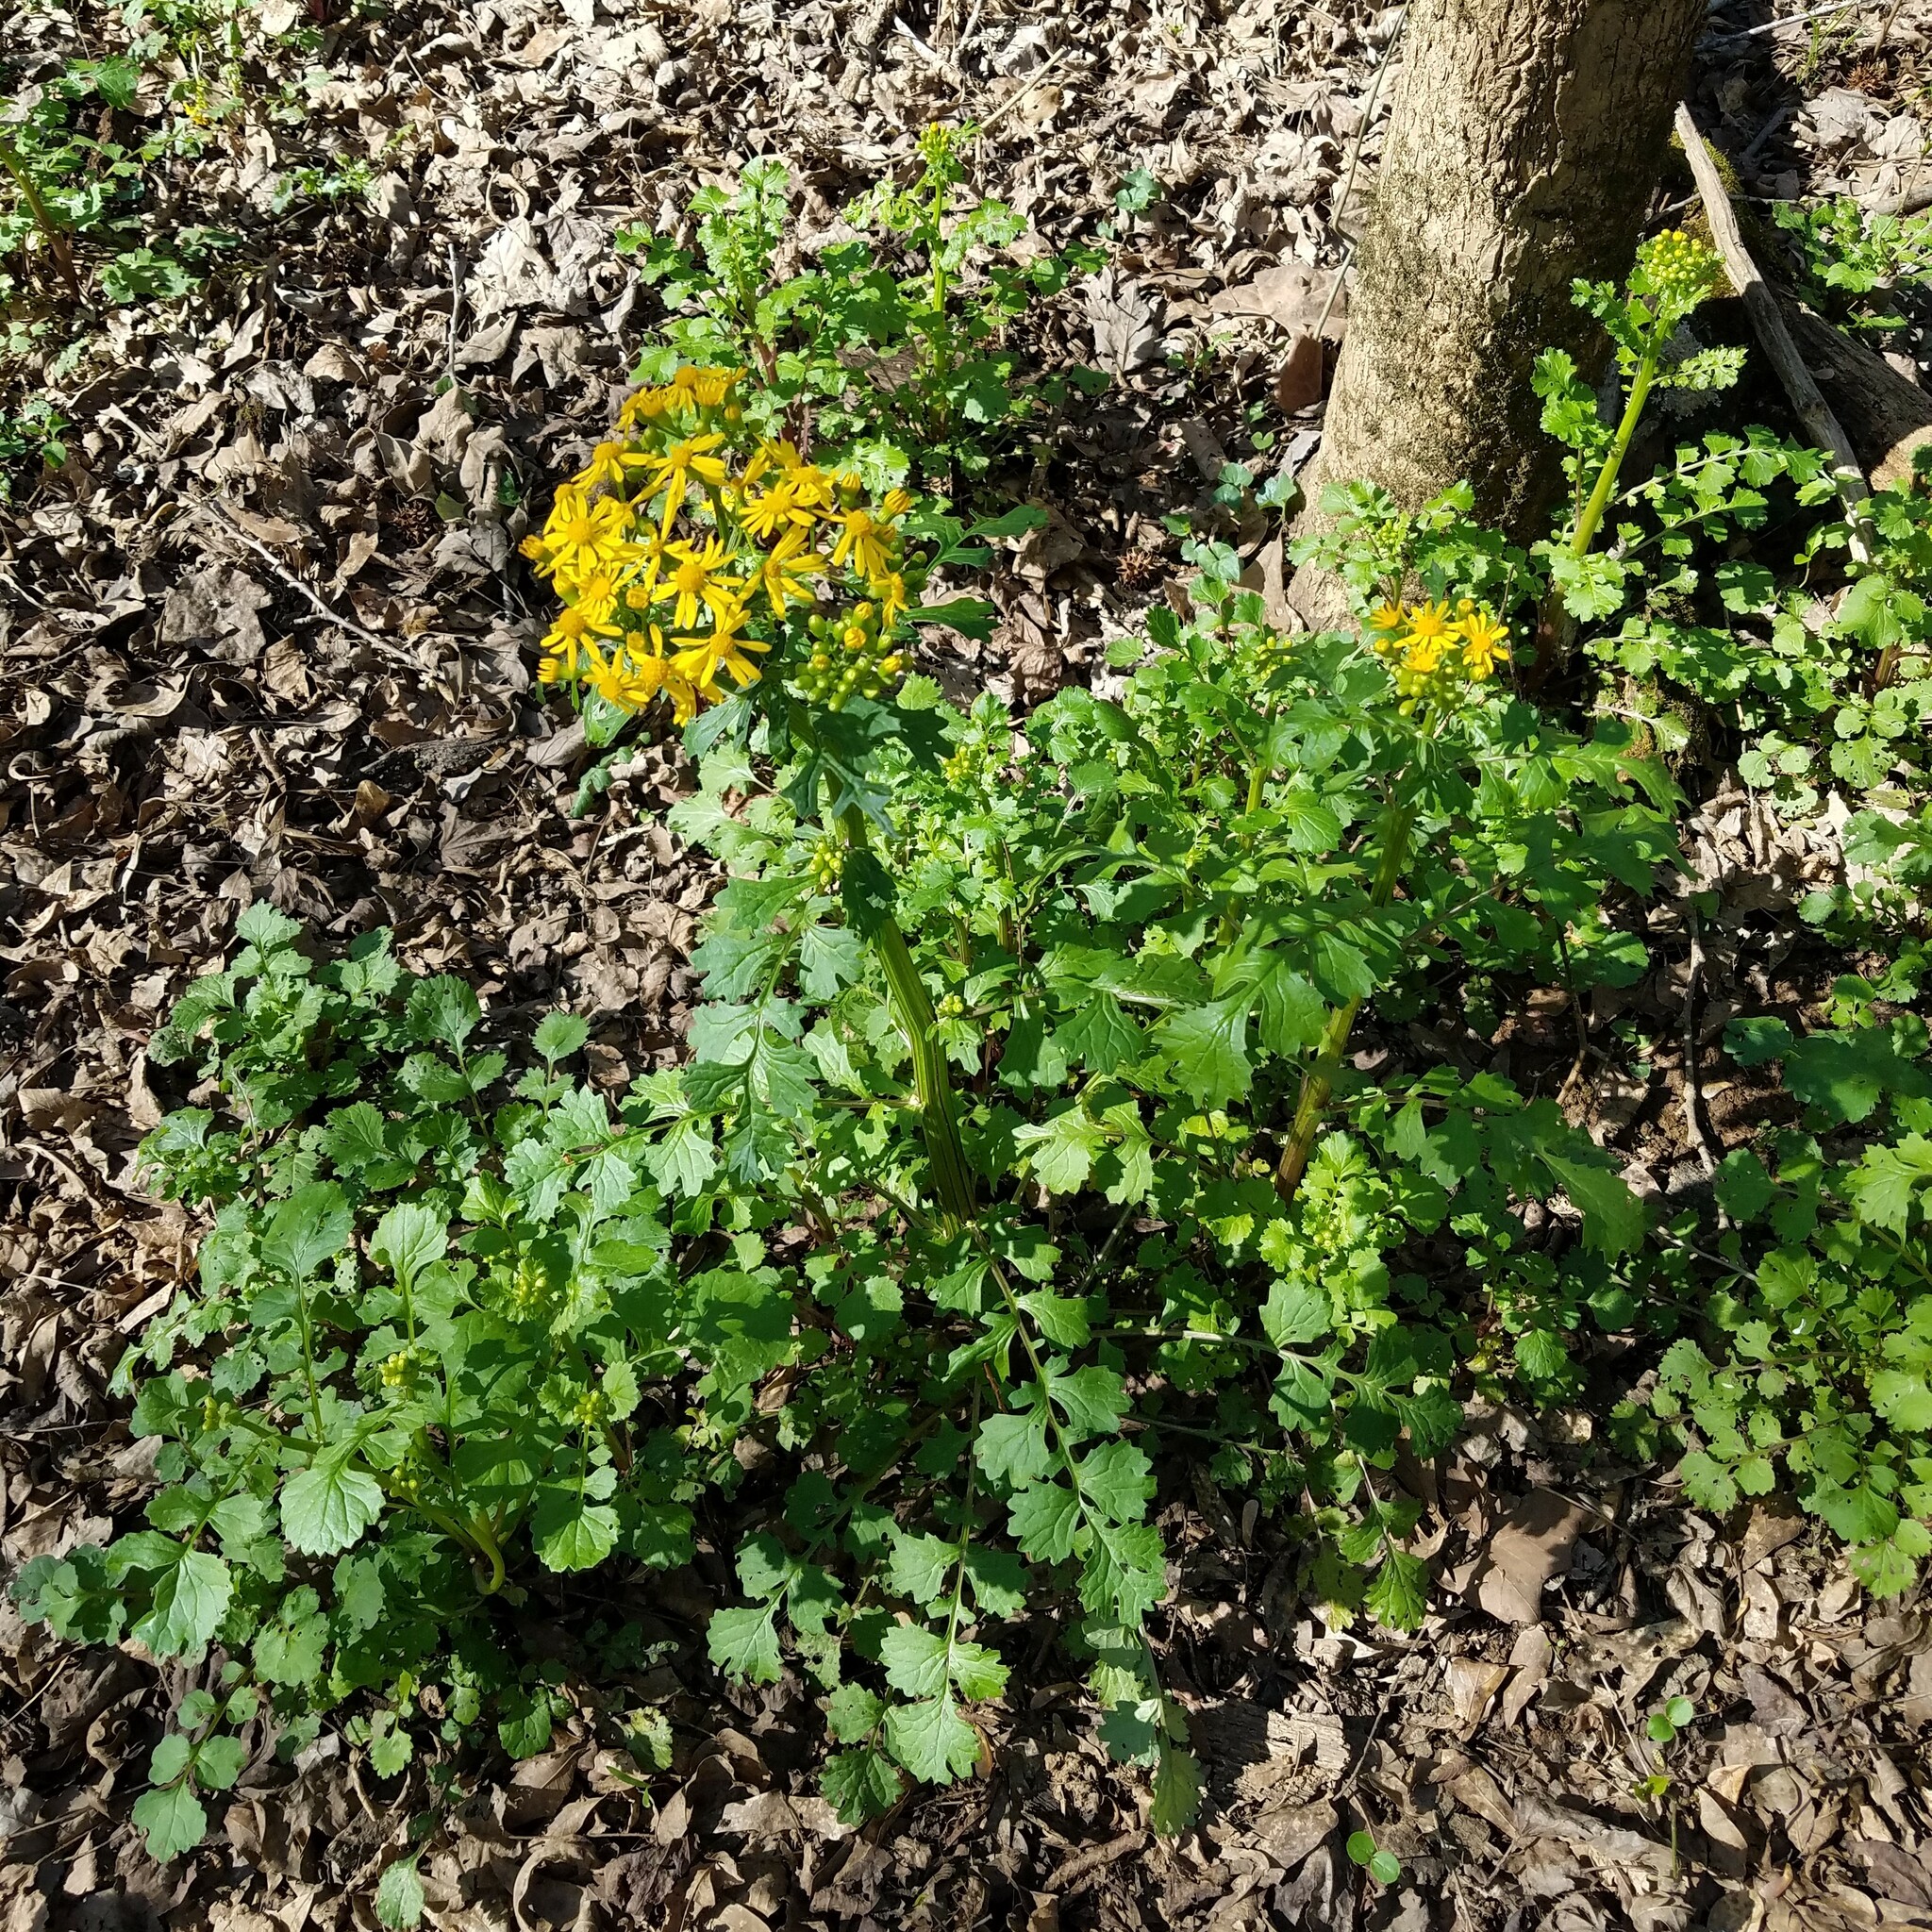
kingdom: Plantae
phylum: Tracheophyta
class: Magnoliopsida
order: Asterales
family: Asteraceae
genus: Packera
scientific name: Packera glabella
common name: Butterweed
